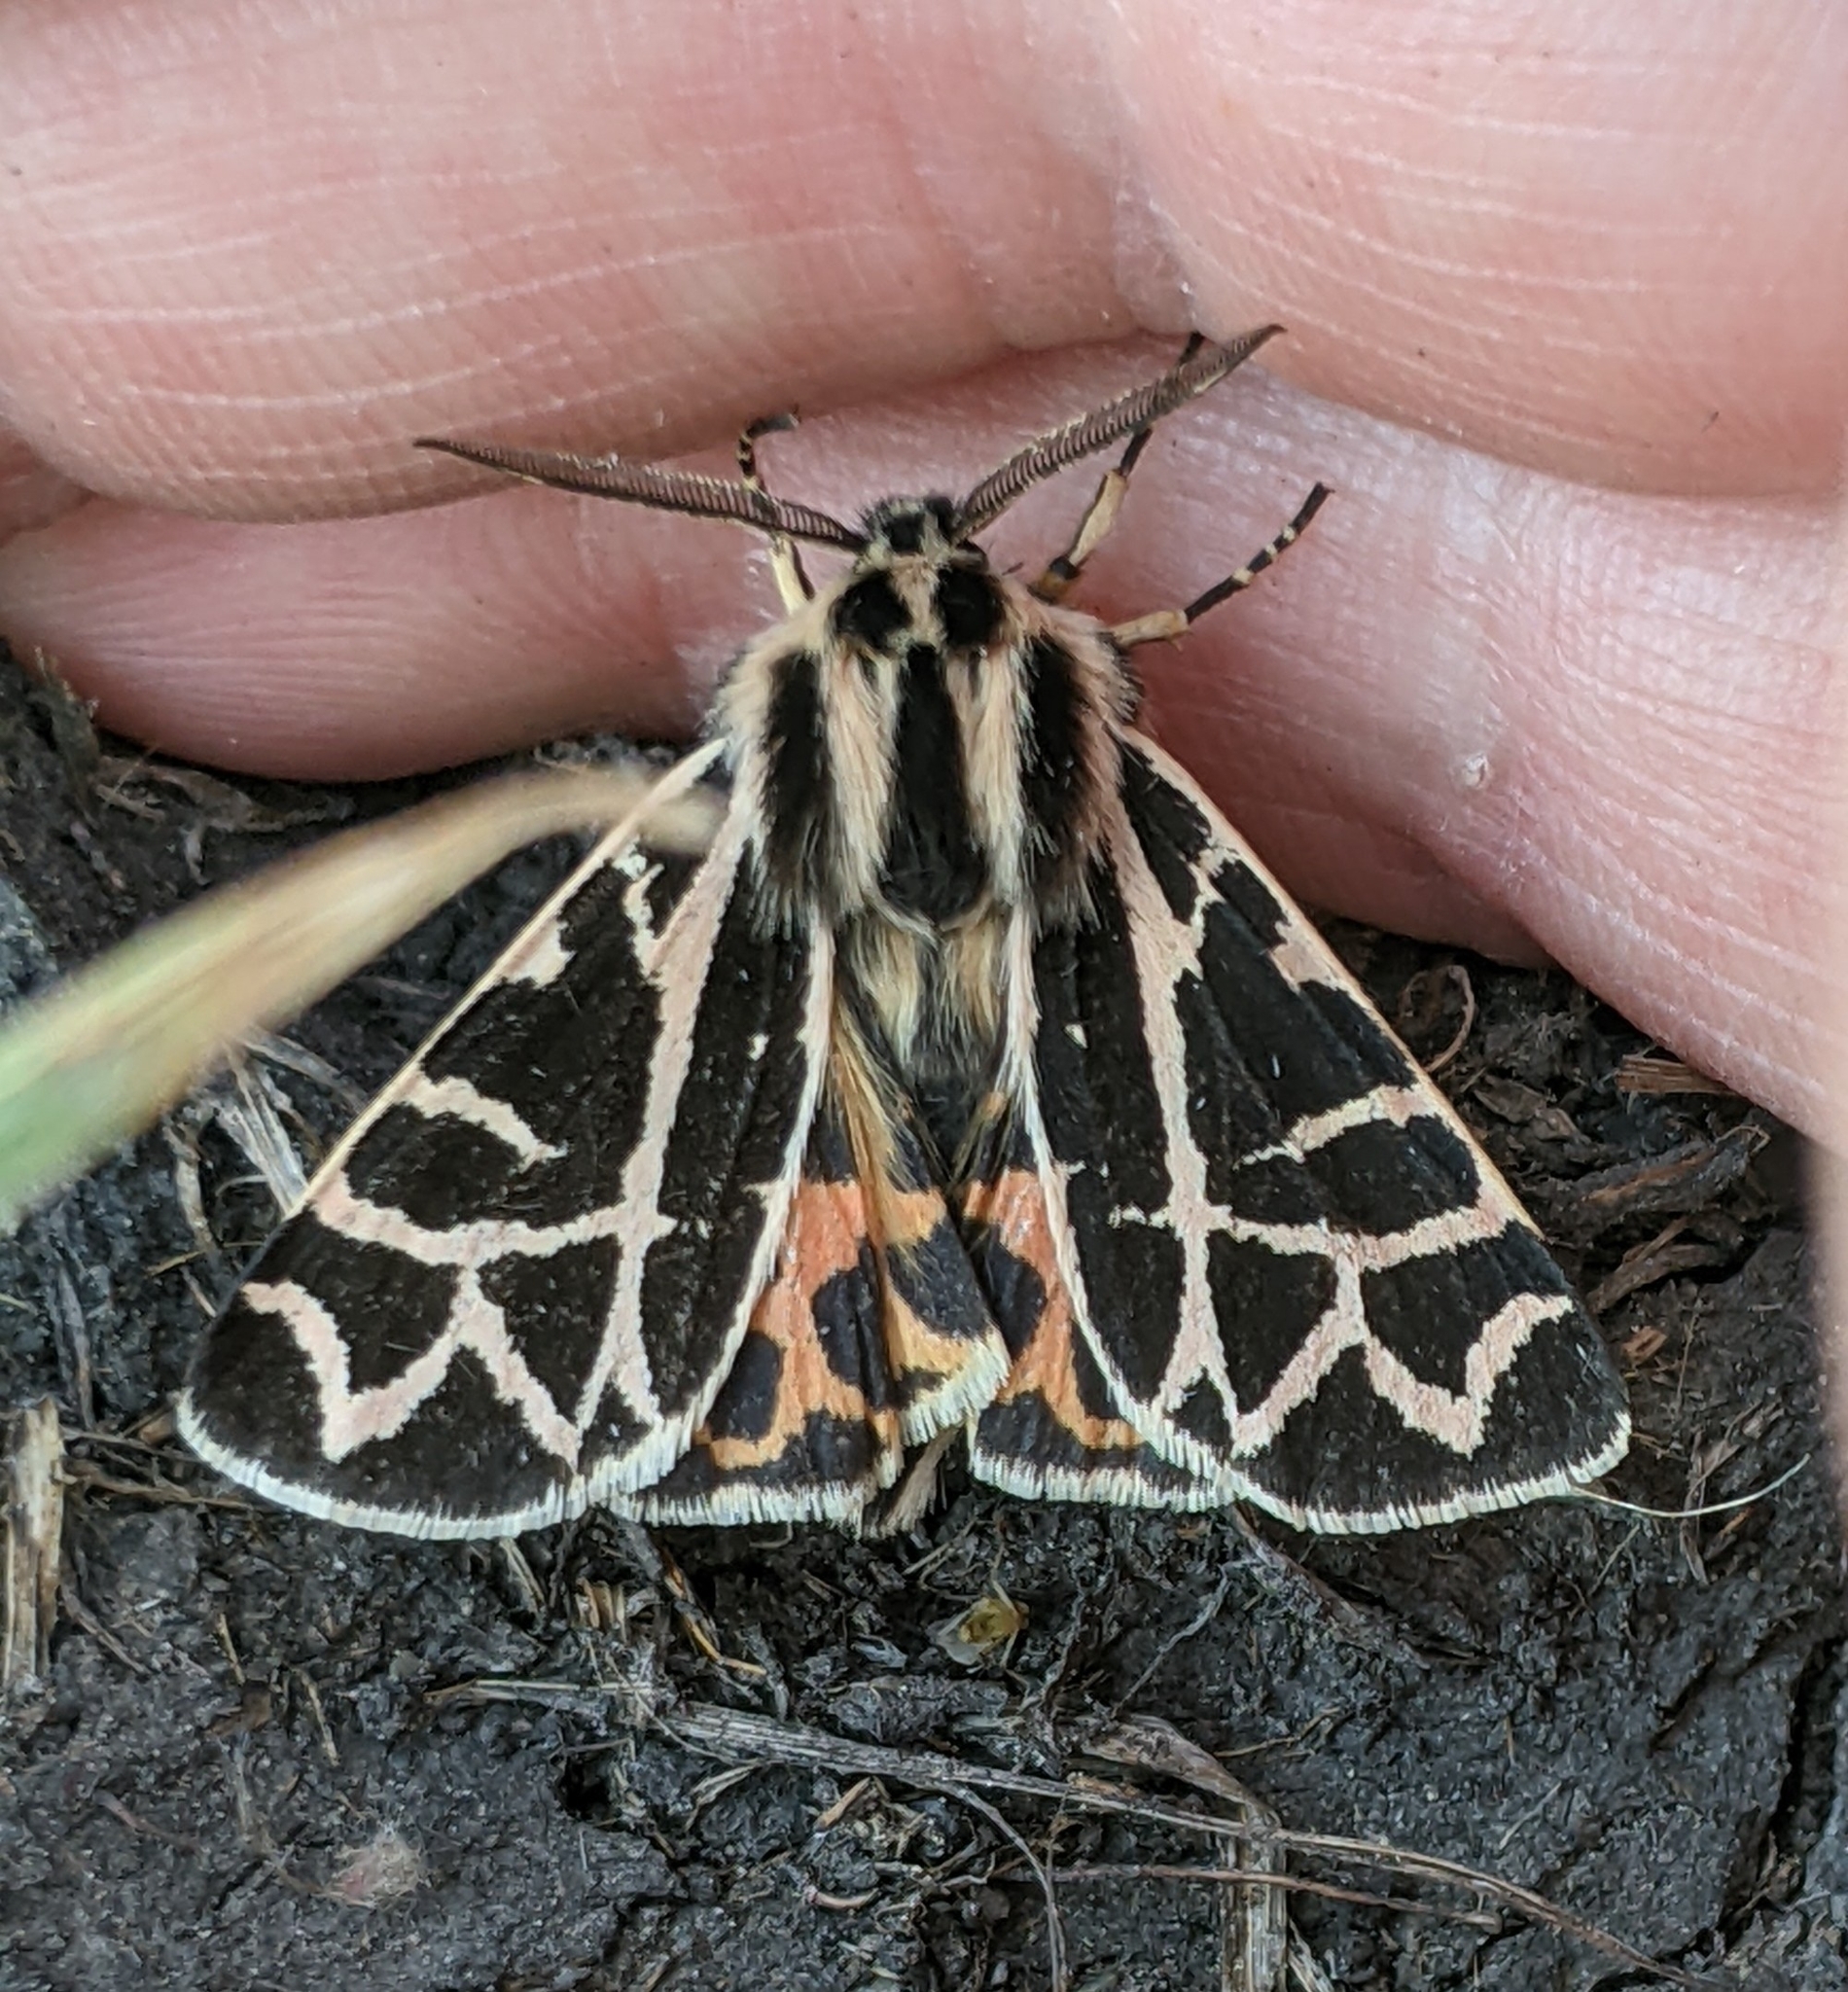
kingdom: Animalia
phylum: Arthropoda
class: Insecta
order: Lepidoptera
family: Erebidae
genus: Apantesis
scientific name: Apantesis
